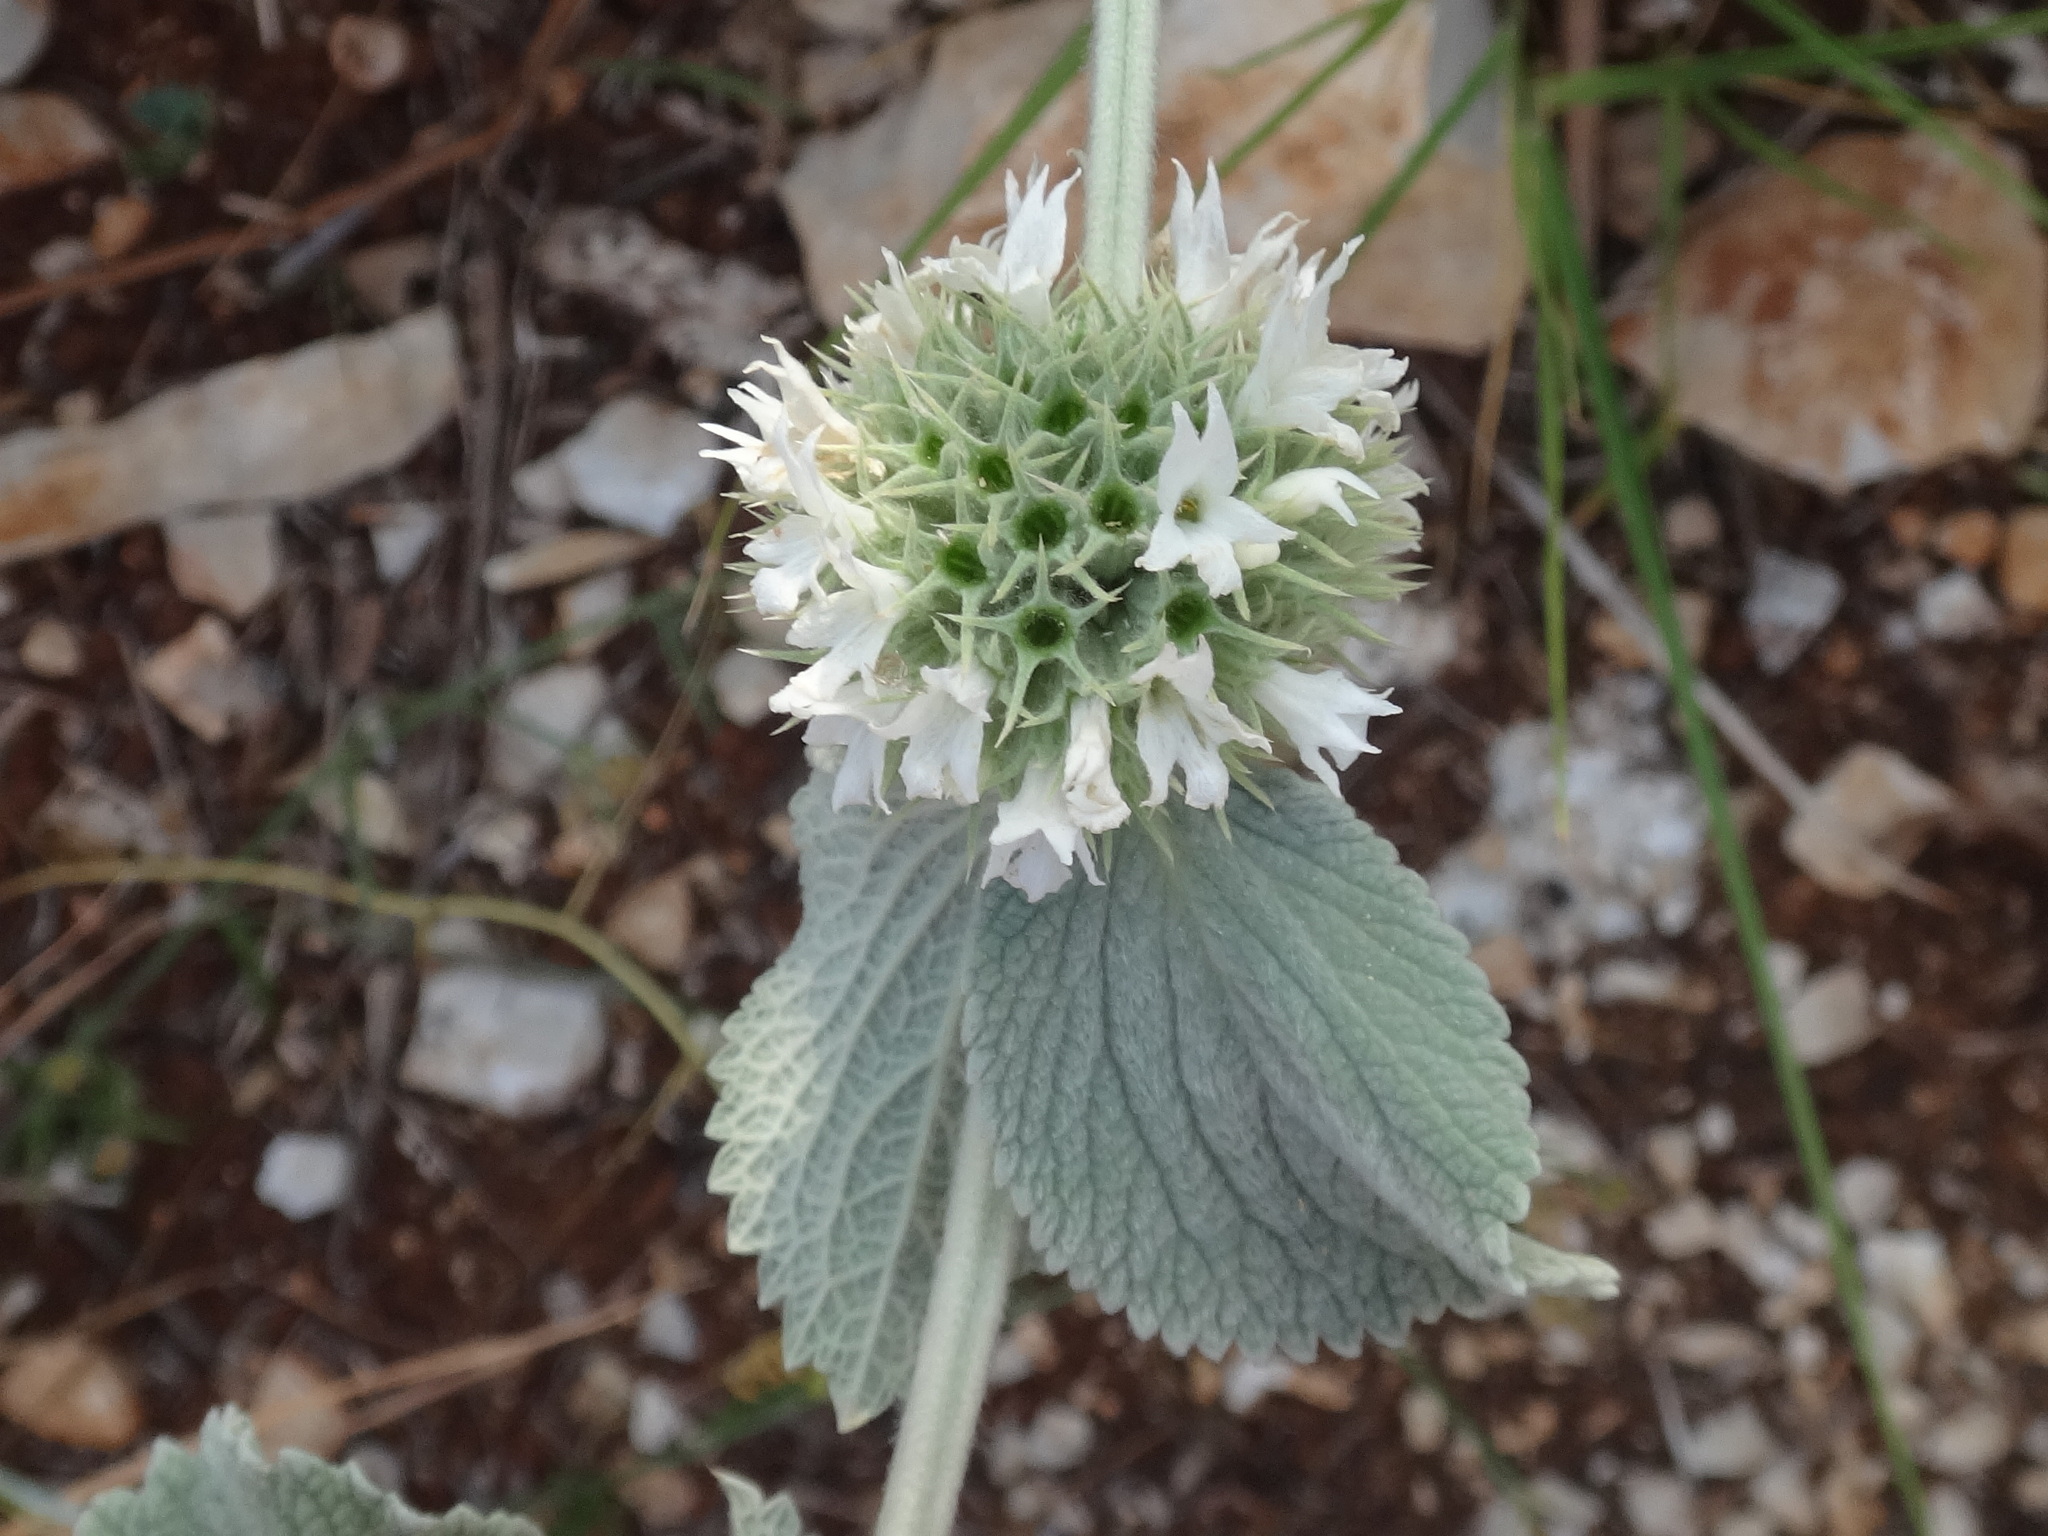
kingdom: Plantae
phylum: Tracheophyta
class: Magnoliopsida
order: Lamiales
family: Lamiaceae
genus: Marrubium
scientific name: Marrubium incanum
